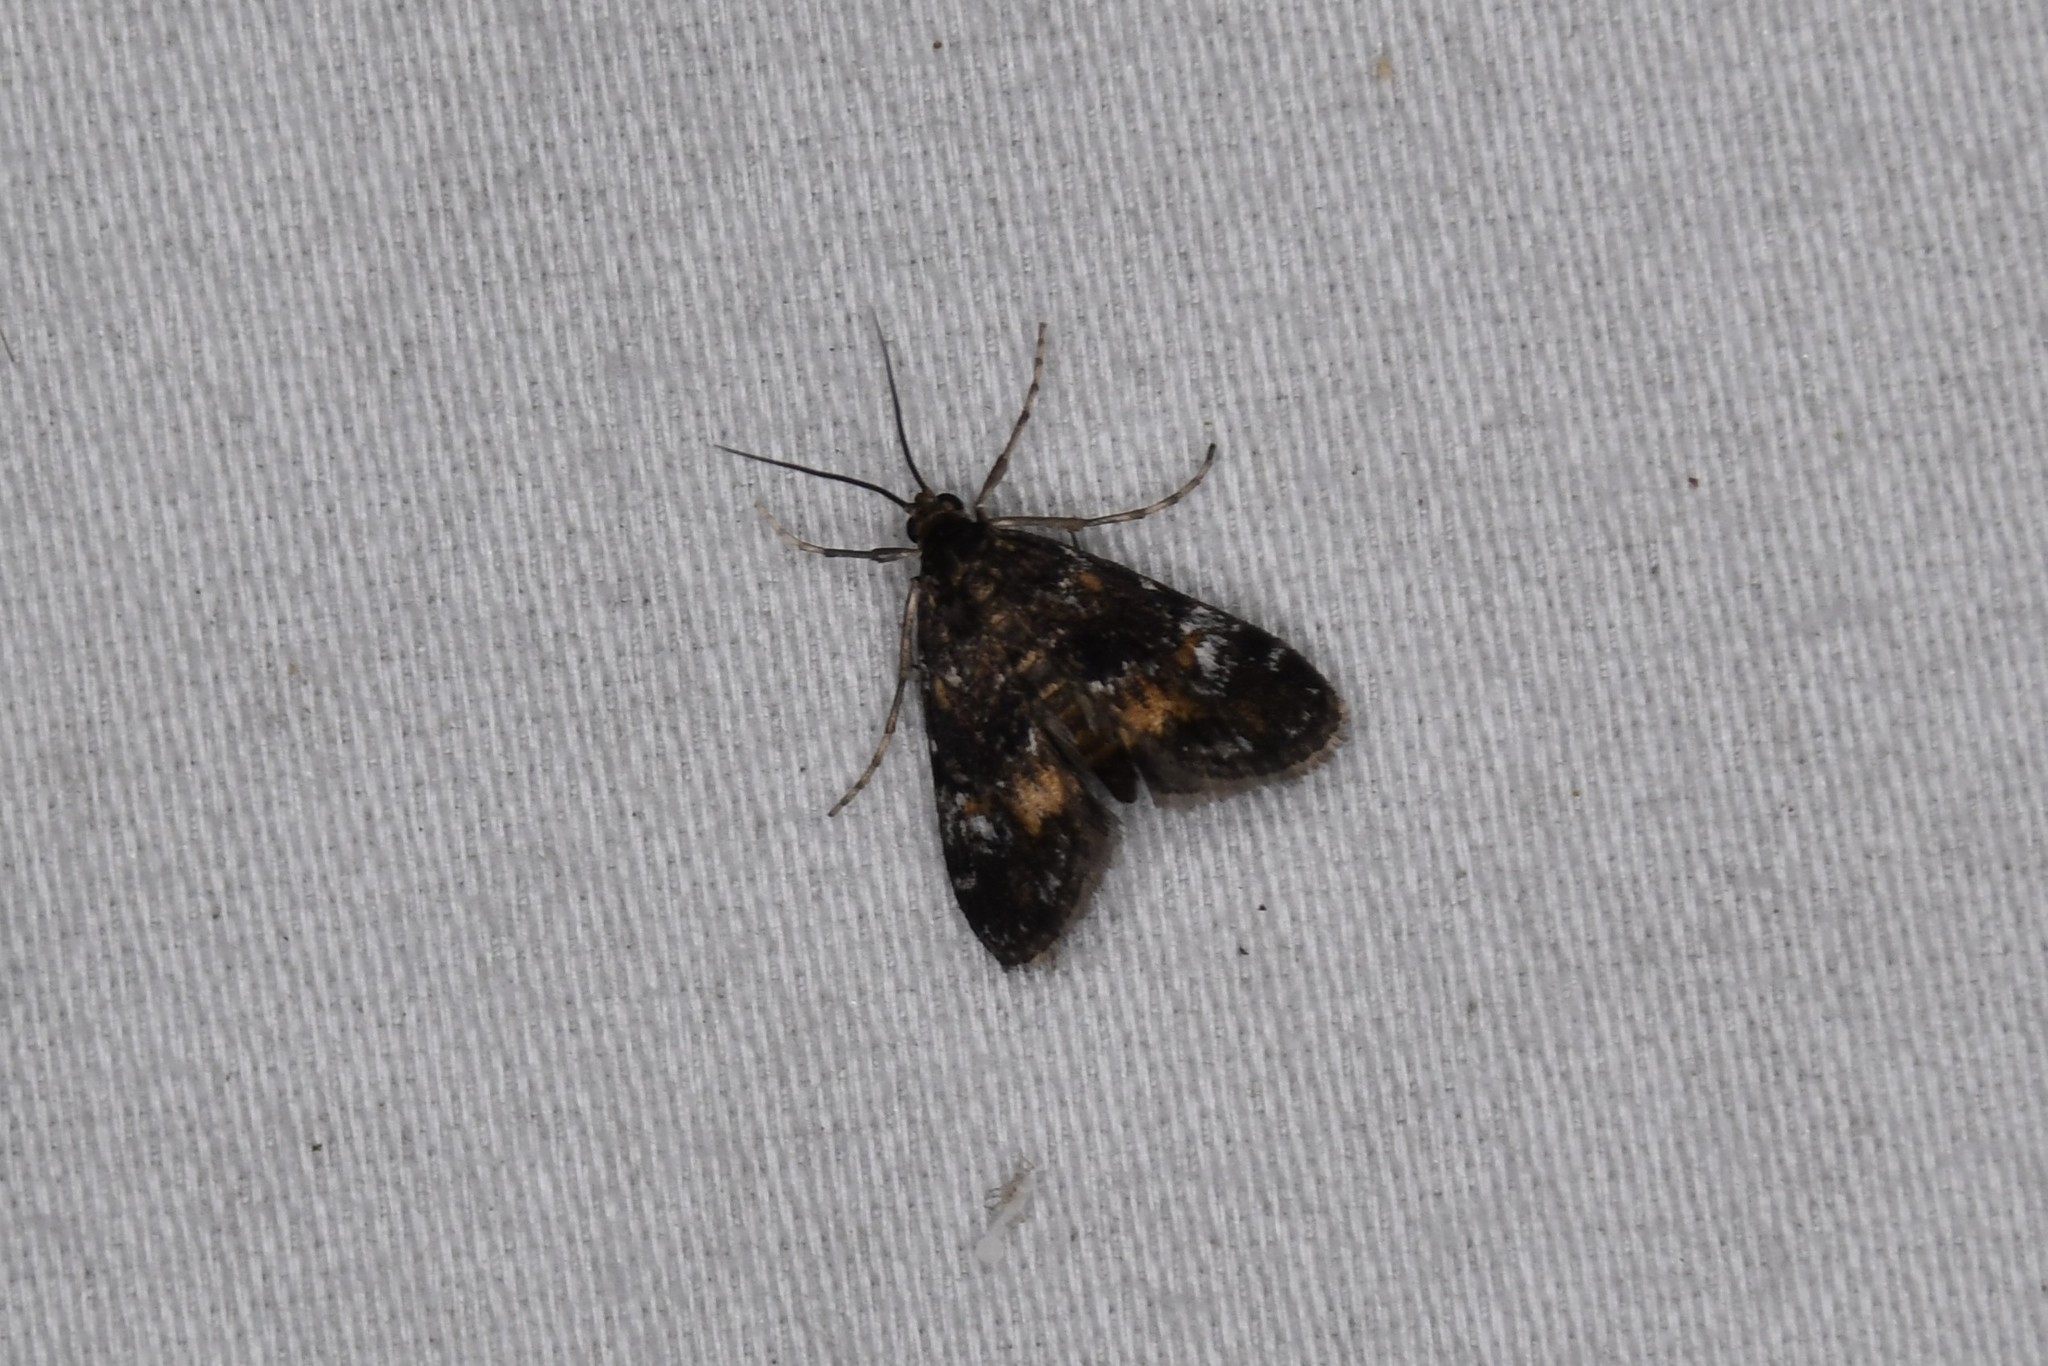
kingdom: Animalia
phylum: Arthropoda
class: Insecta
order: Lepidoptera
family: Crambidae
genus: Elophila
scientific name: Elophila obliteralis
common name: Waterlily leafcutter moth
